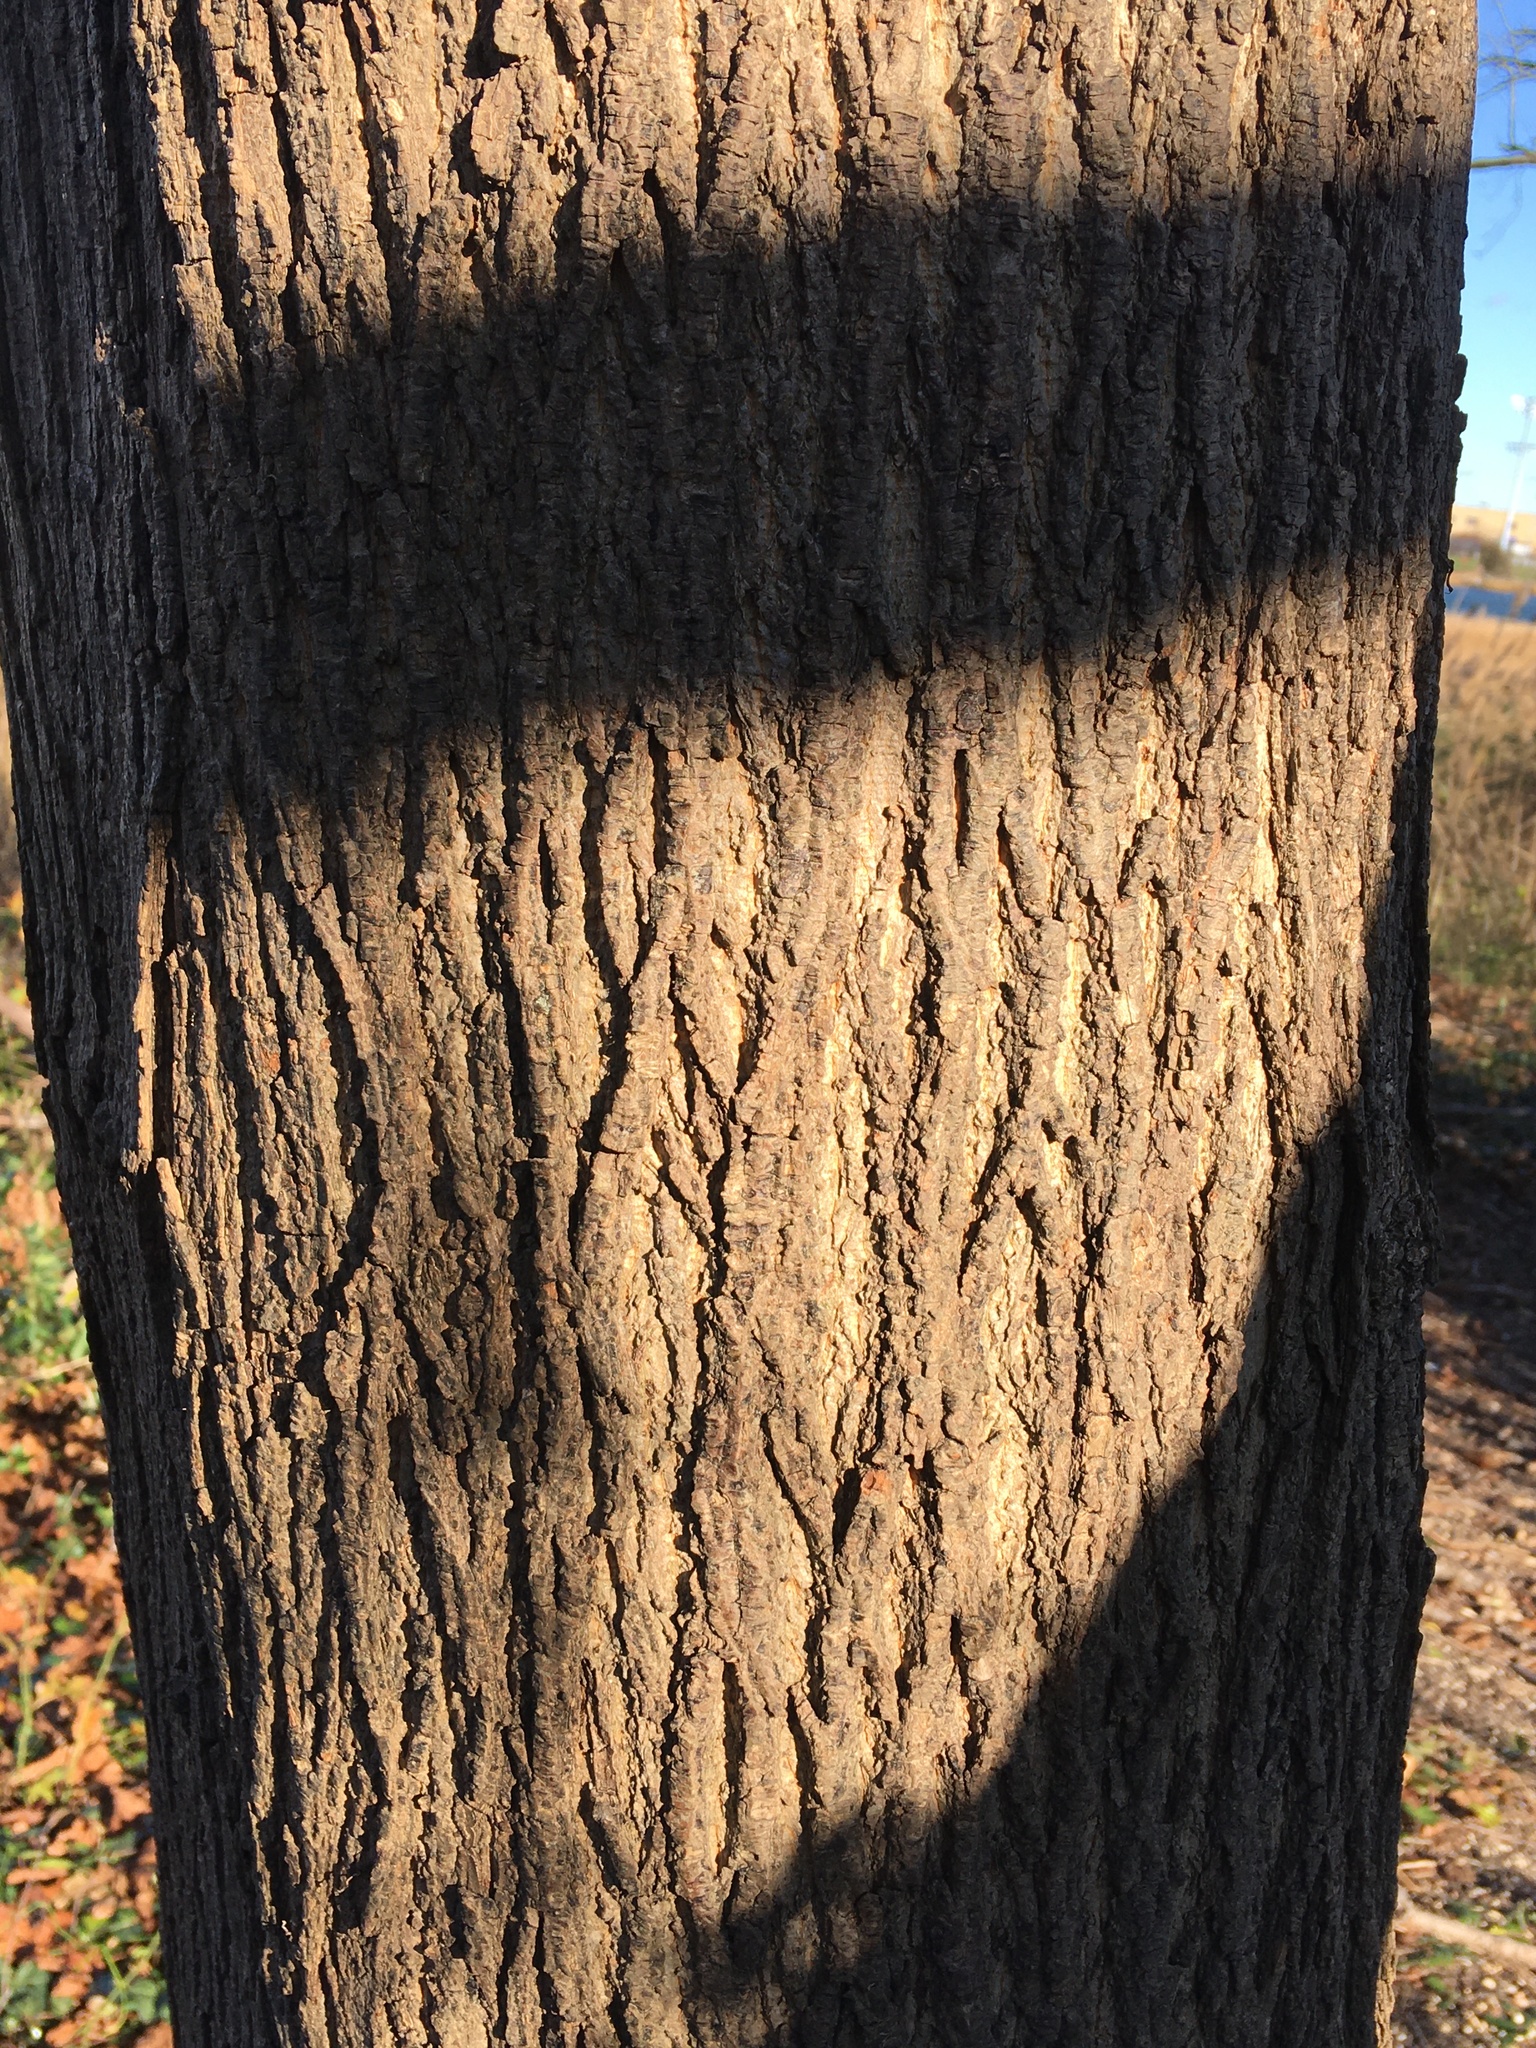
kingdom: Plantae
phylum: Tracheophyta
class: Magnoliopsida
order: Sapindales
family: Sapindaceae
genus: Acer
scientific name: Acer platanoides
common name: Norway maple
